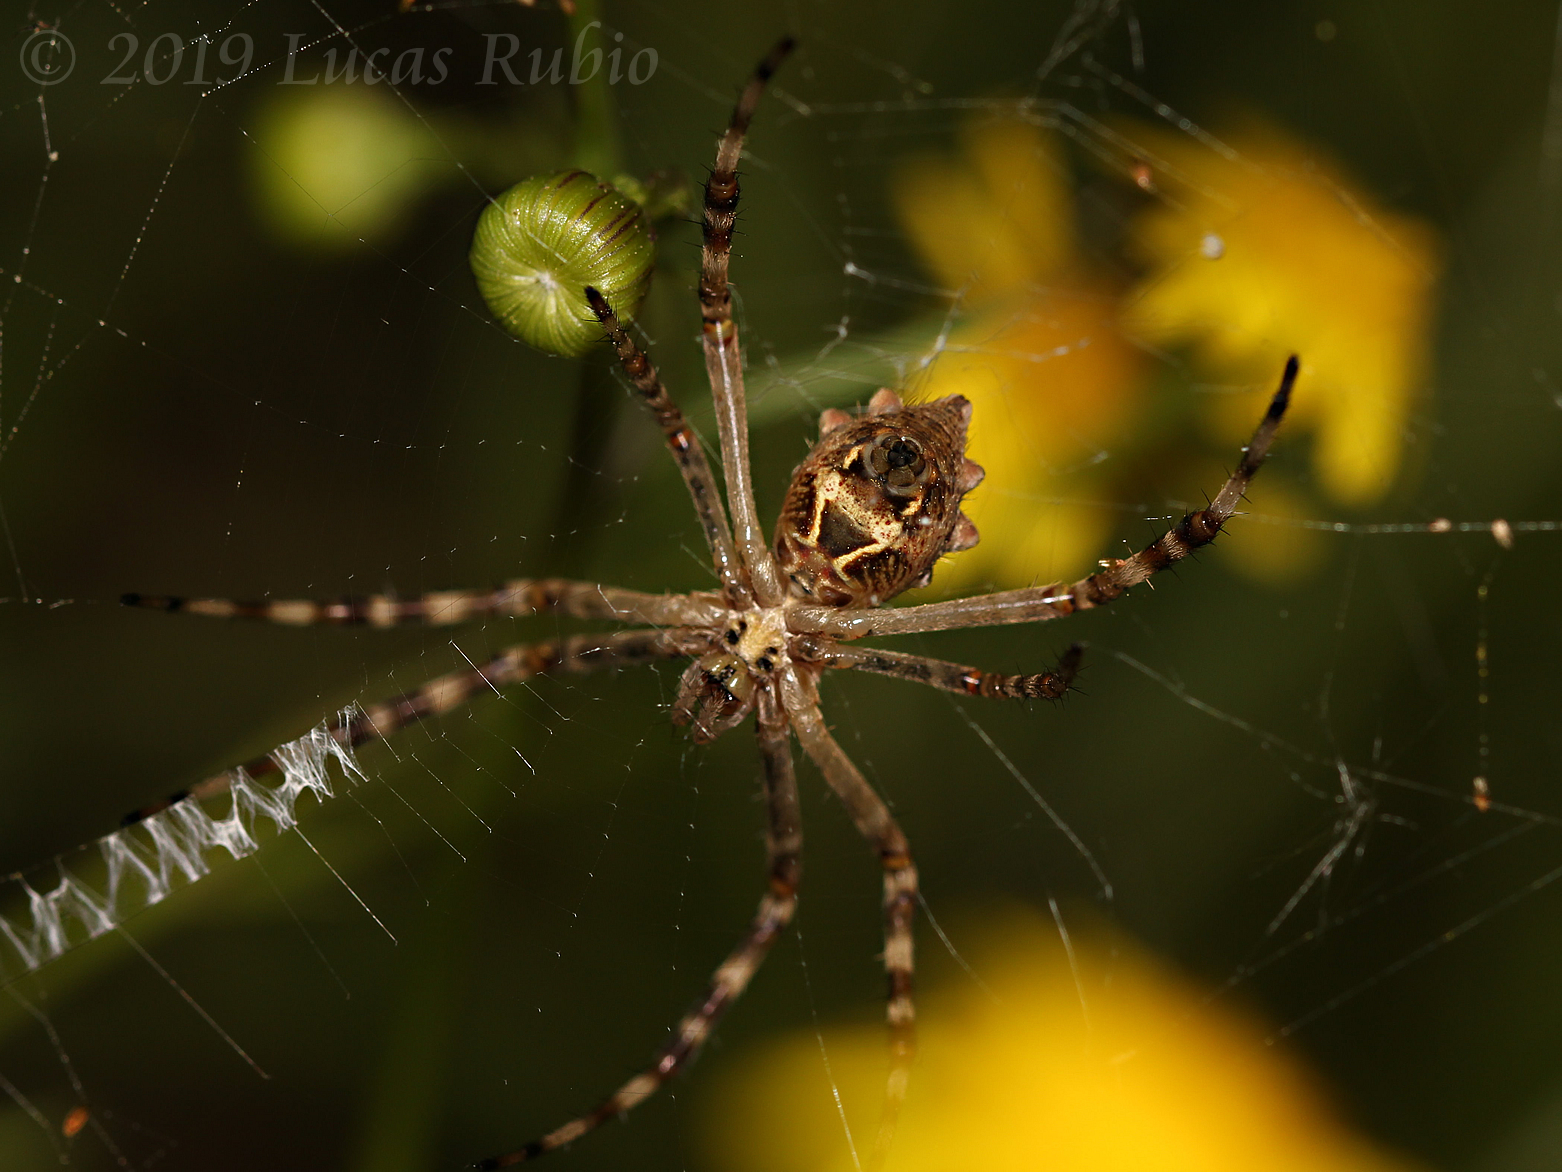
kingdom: Animalia
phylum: Arthropoda
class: Arachnida
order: Araneae
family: Araneidae
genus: Argiope
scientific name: Argiope argentata
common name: Orb weavers
